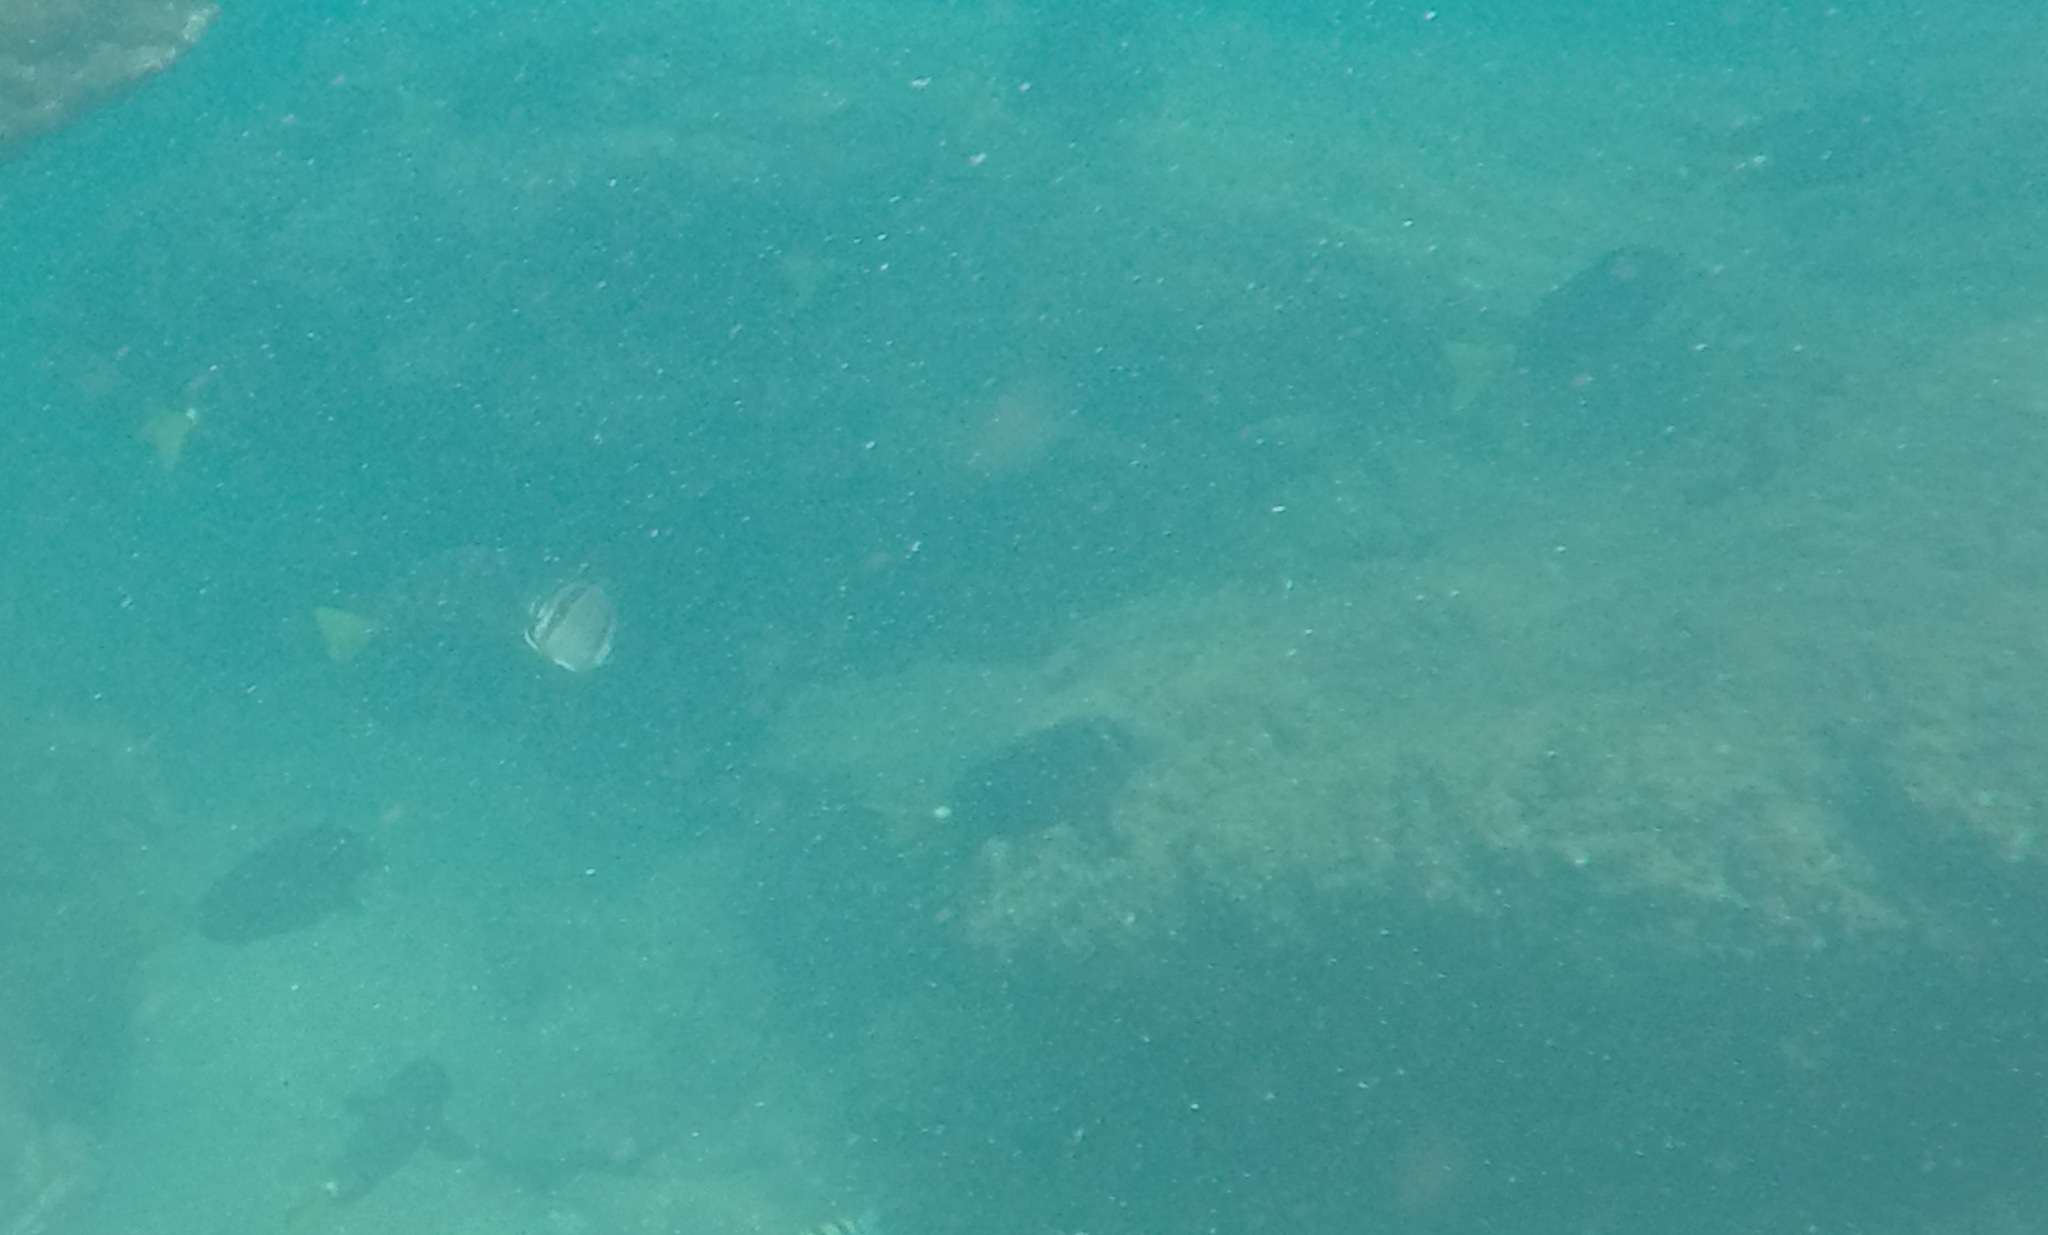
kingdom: Animalia
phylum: Chordata
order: Perciformes
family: Acanthuridae
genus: Prionurus
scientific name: Prionurus laticlavius
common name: Razor surgeonfish
